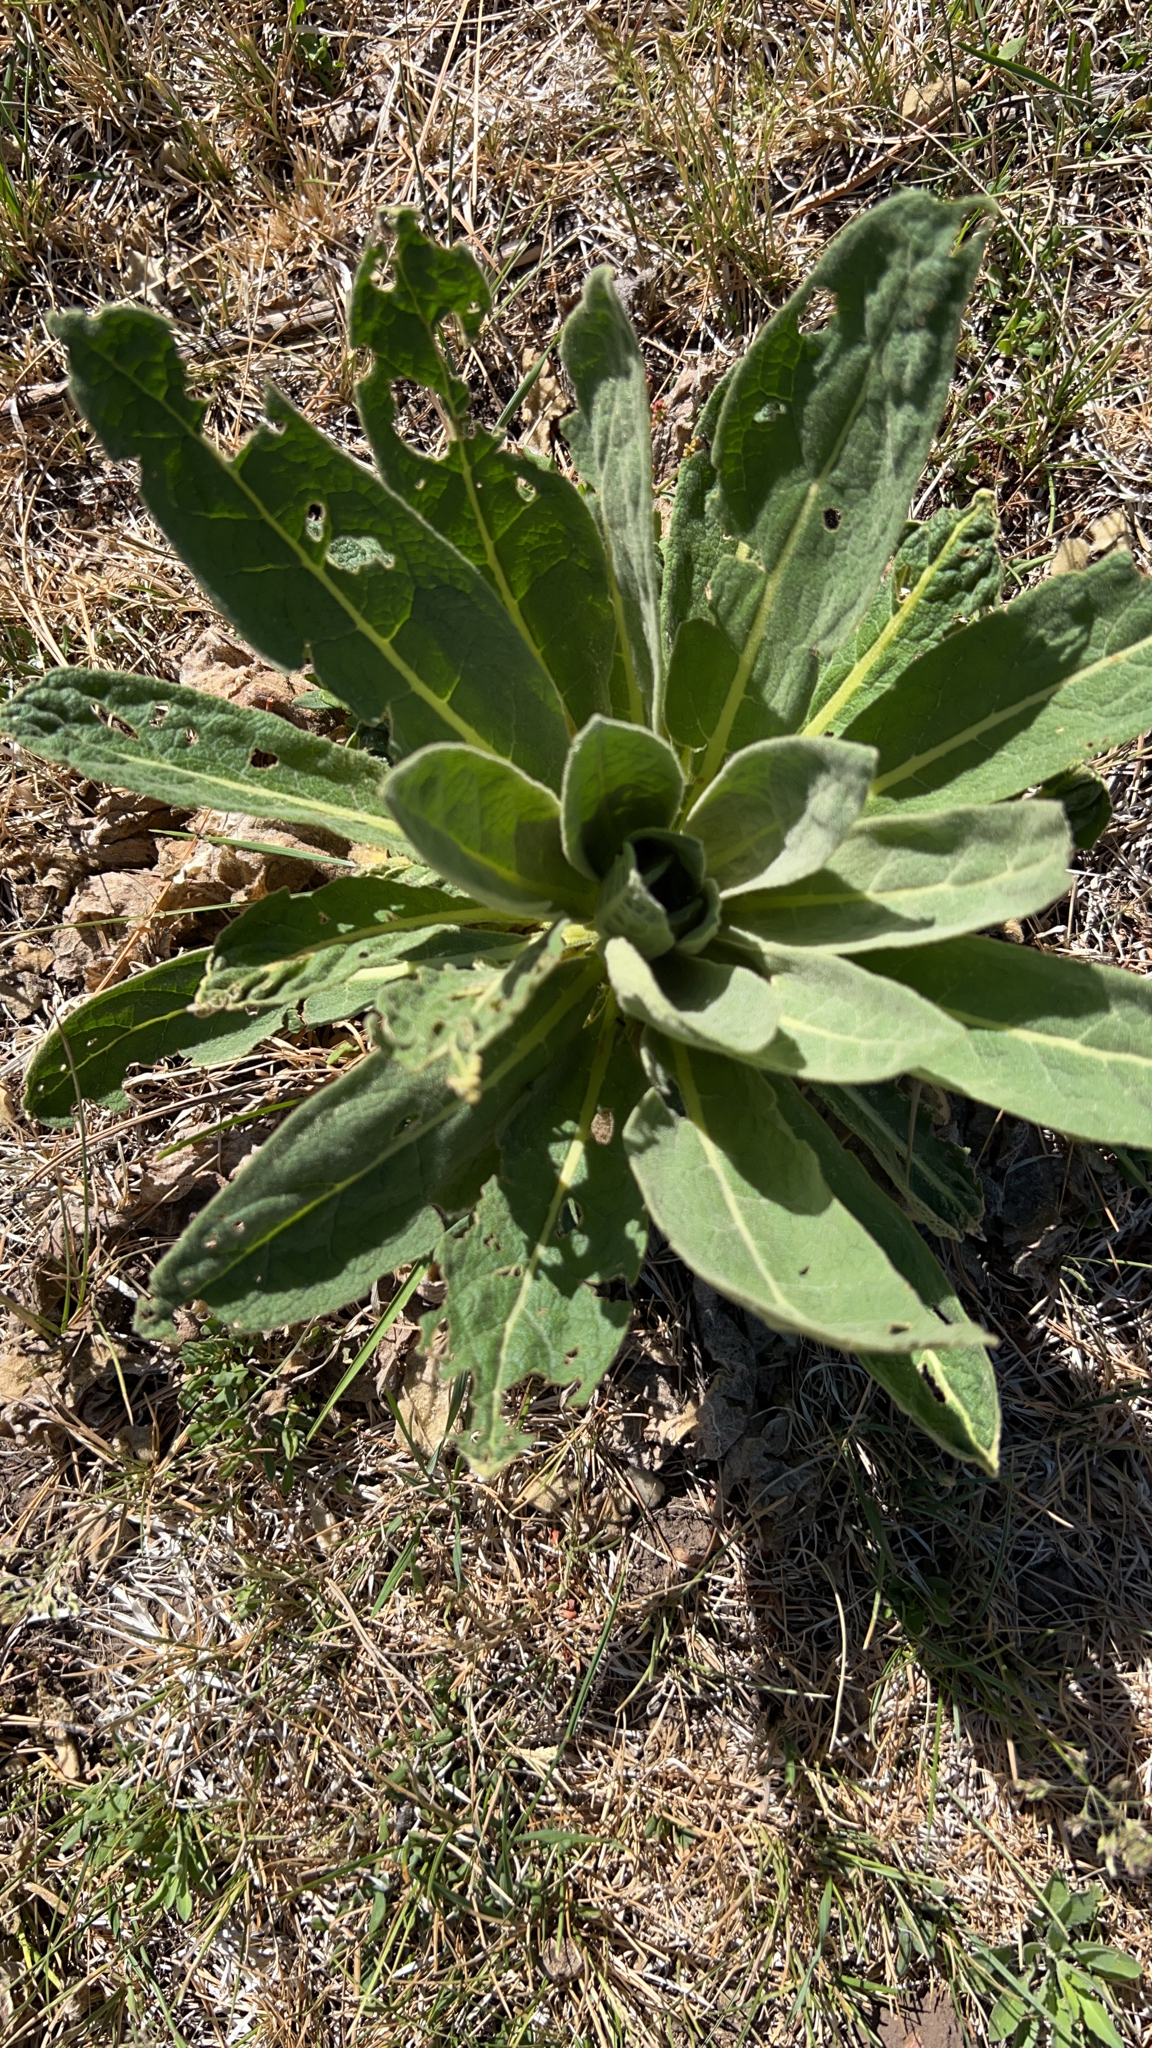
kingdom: Plantae
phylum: Tracheophyta
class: Magnoliopsida
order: Lamiales
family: Scrophulariaceae
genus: Verbascum
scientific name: Verbascum thapsus
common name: Common mullein
